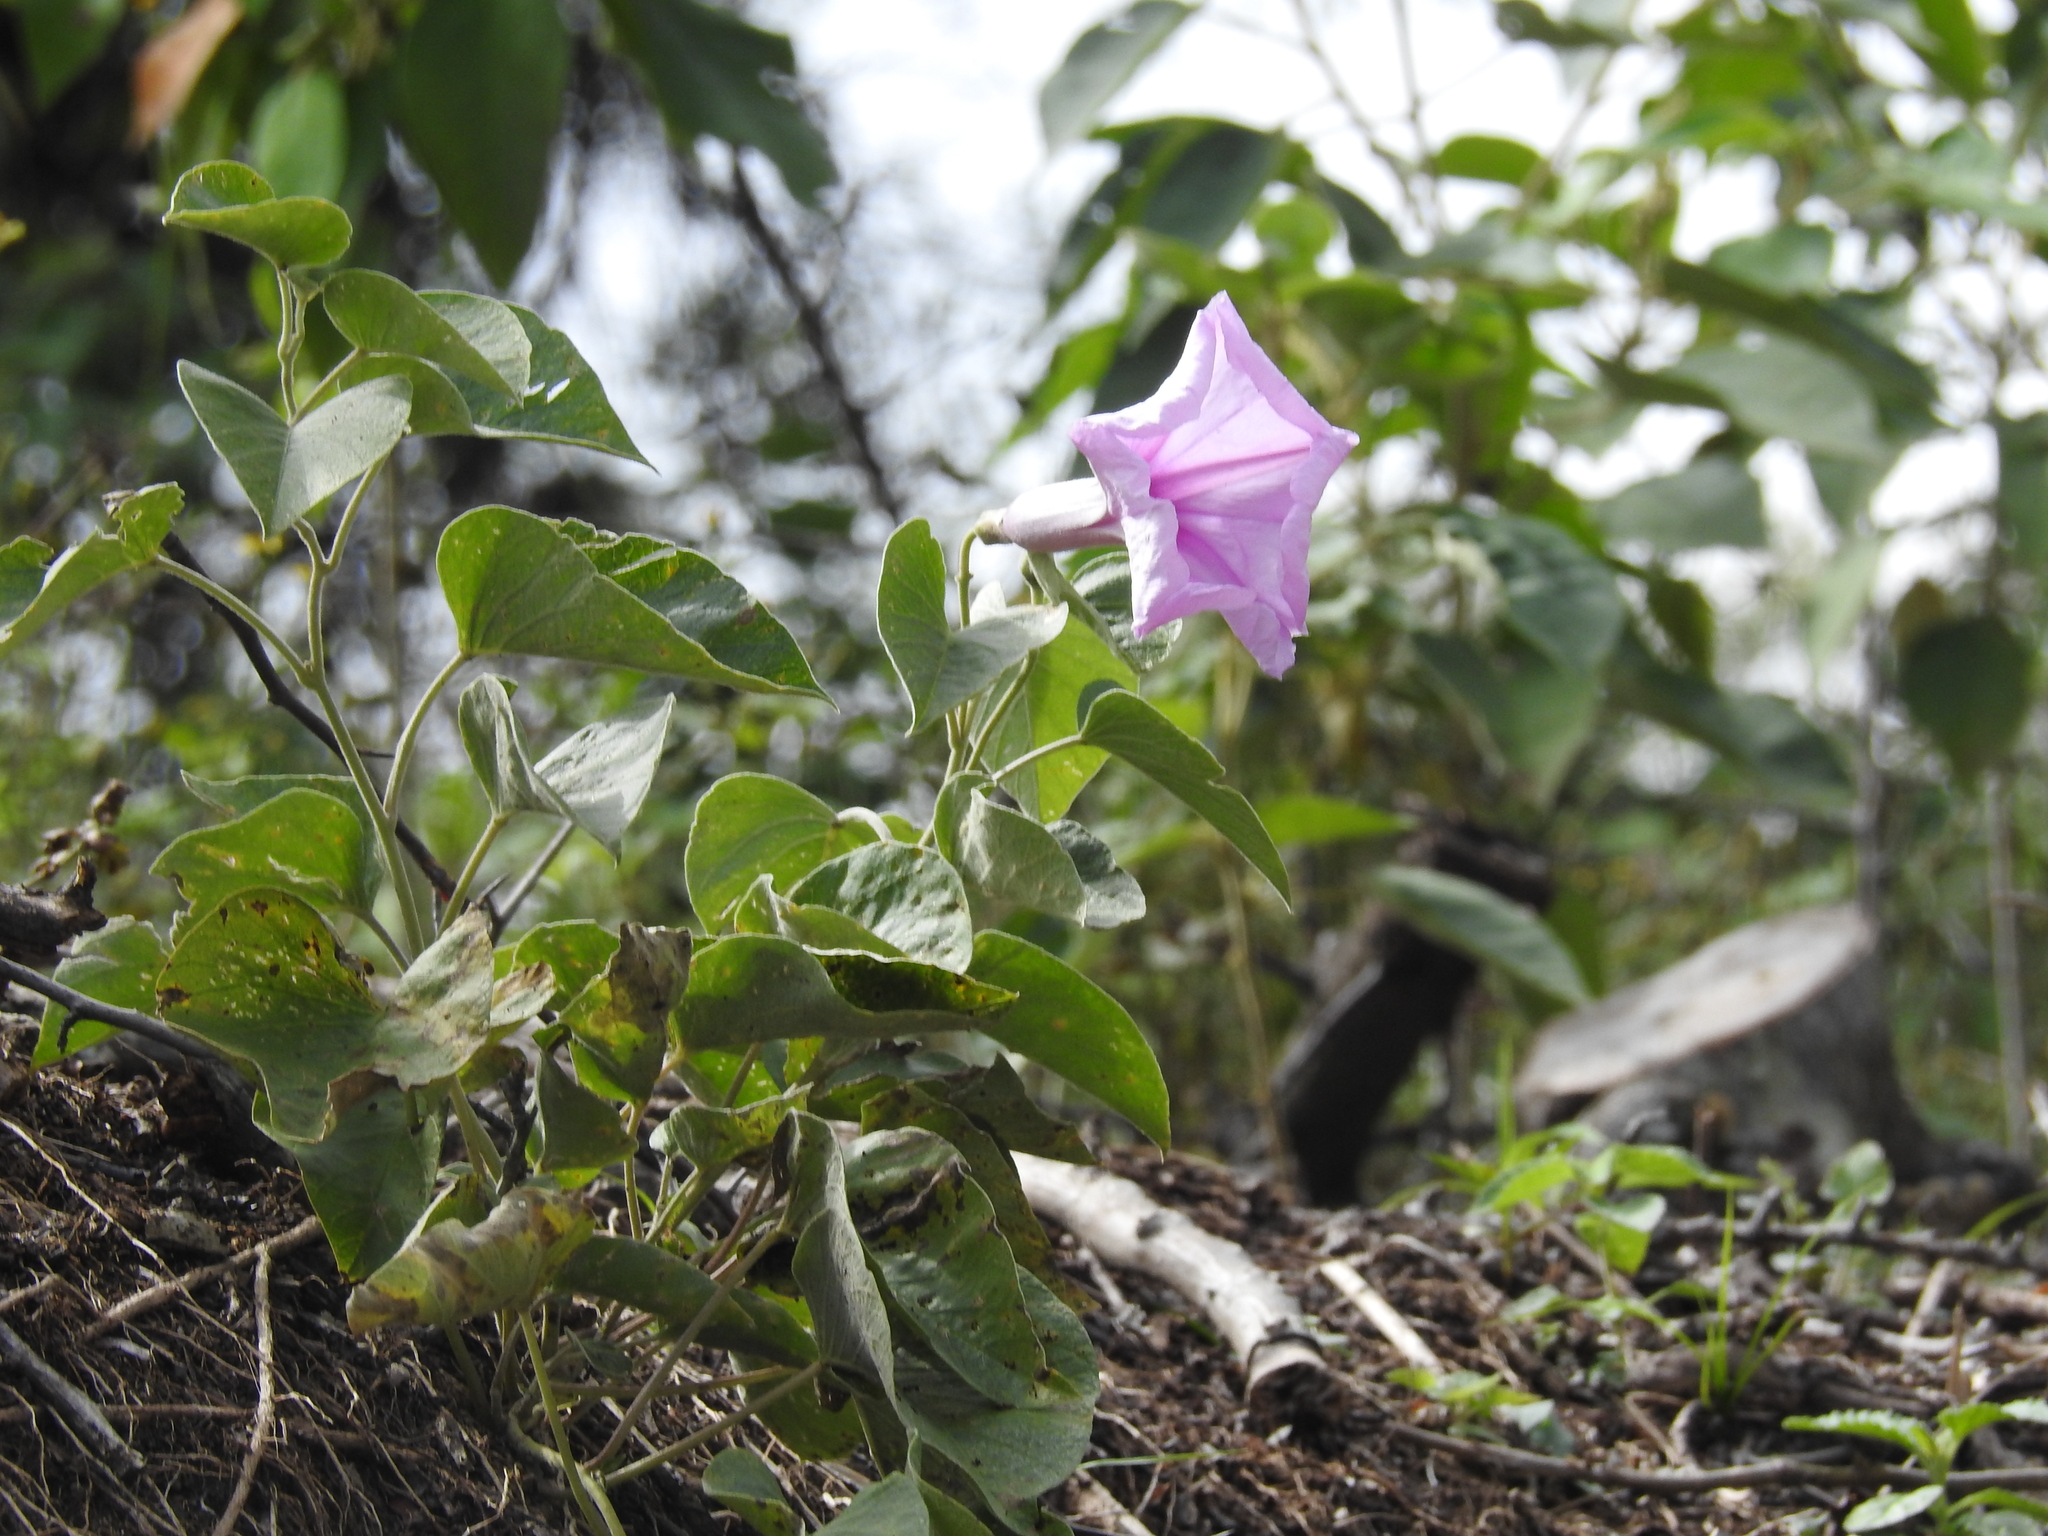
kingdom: Plantae
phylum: Tracheophyta
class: Magnoliopsida
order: Solanales
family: Convolvulaceae
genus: Ipomoea
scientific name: Ipomoea hieronymi
